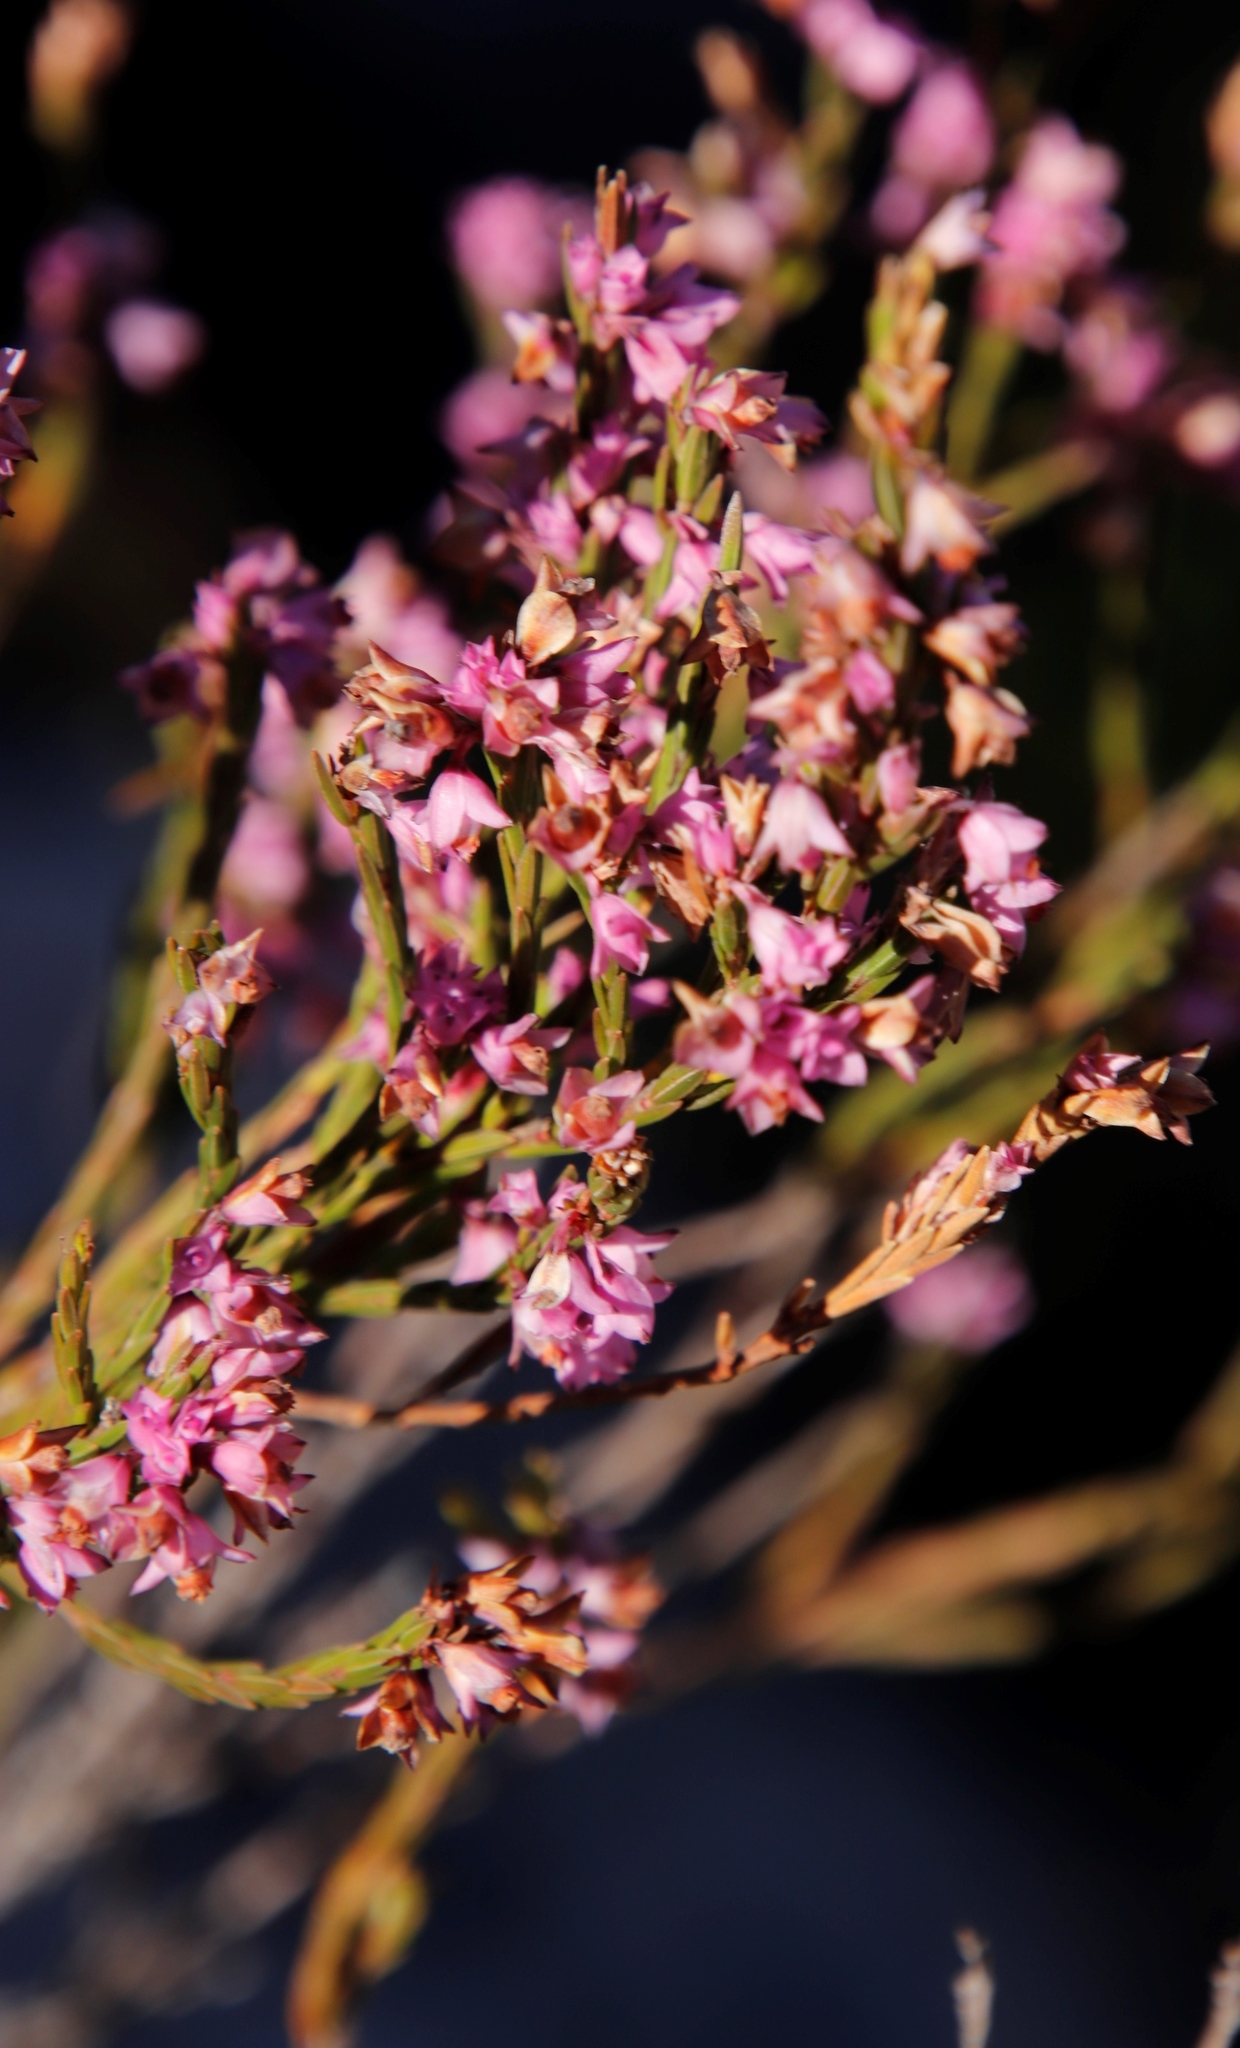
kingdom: Plantae
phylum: Tracheophyta
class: Magnoliopsida
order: Ericales
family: Ericaceae
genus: Erica
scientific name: Erica corifolia
